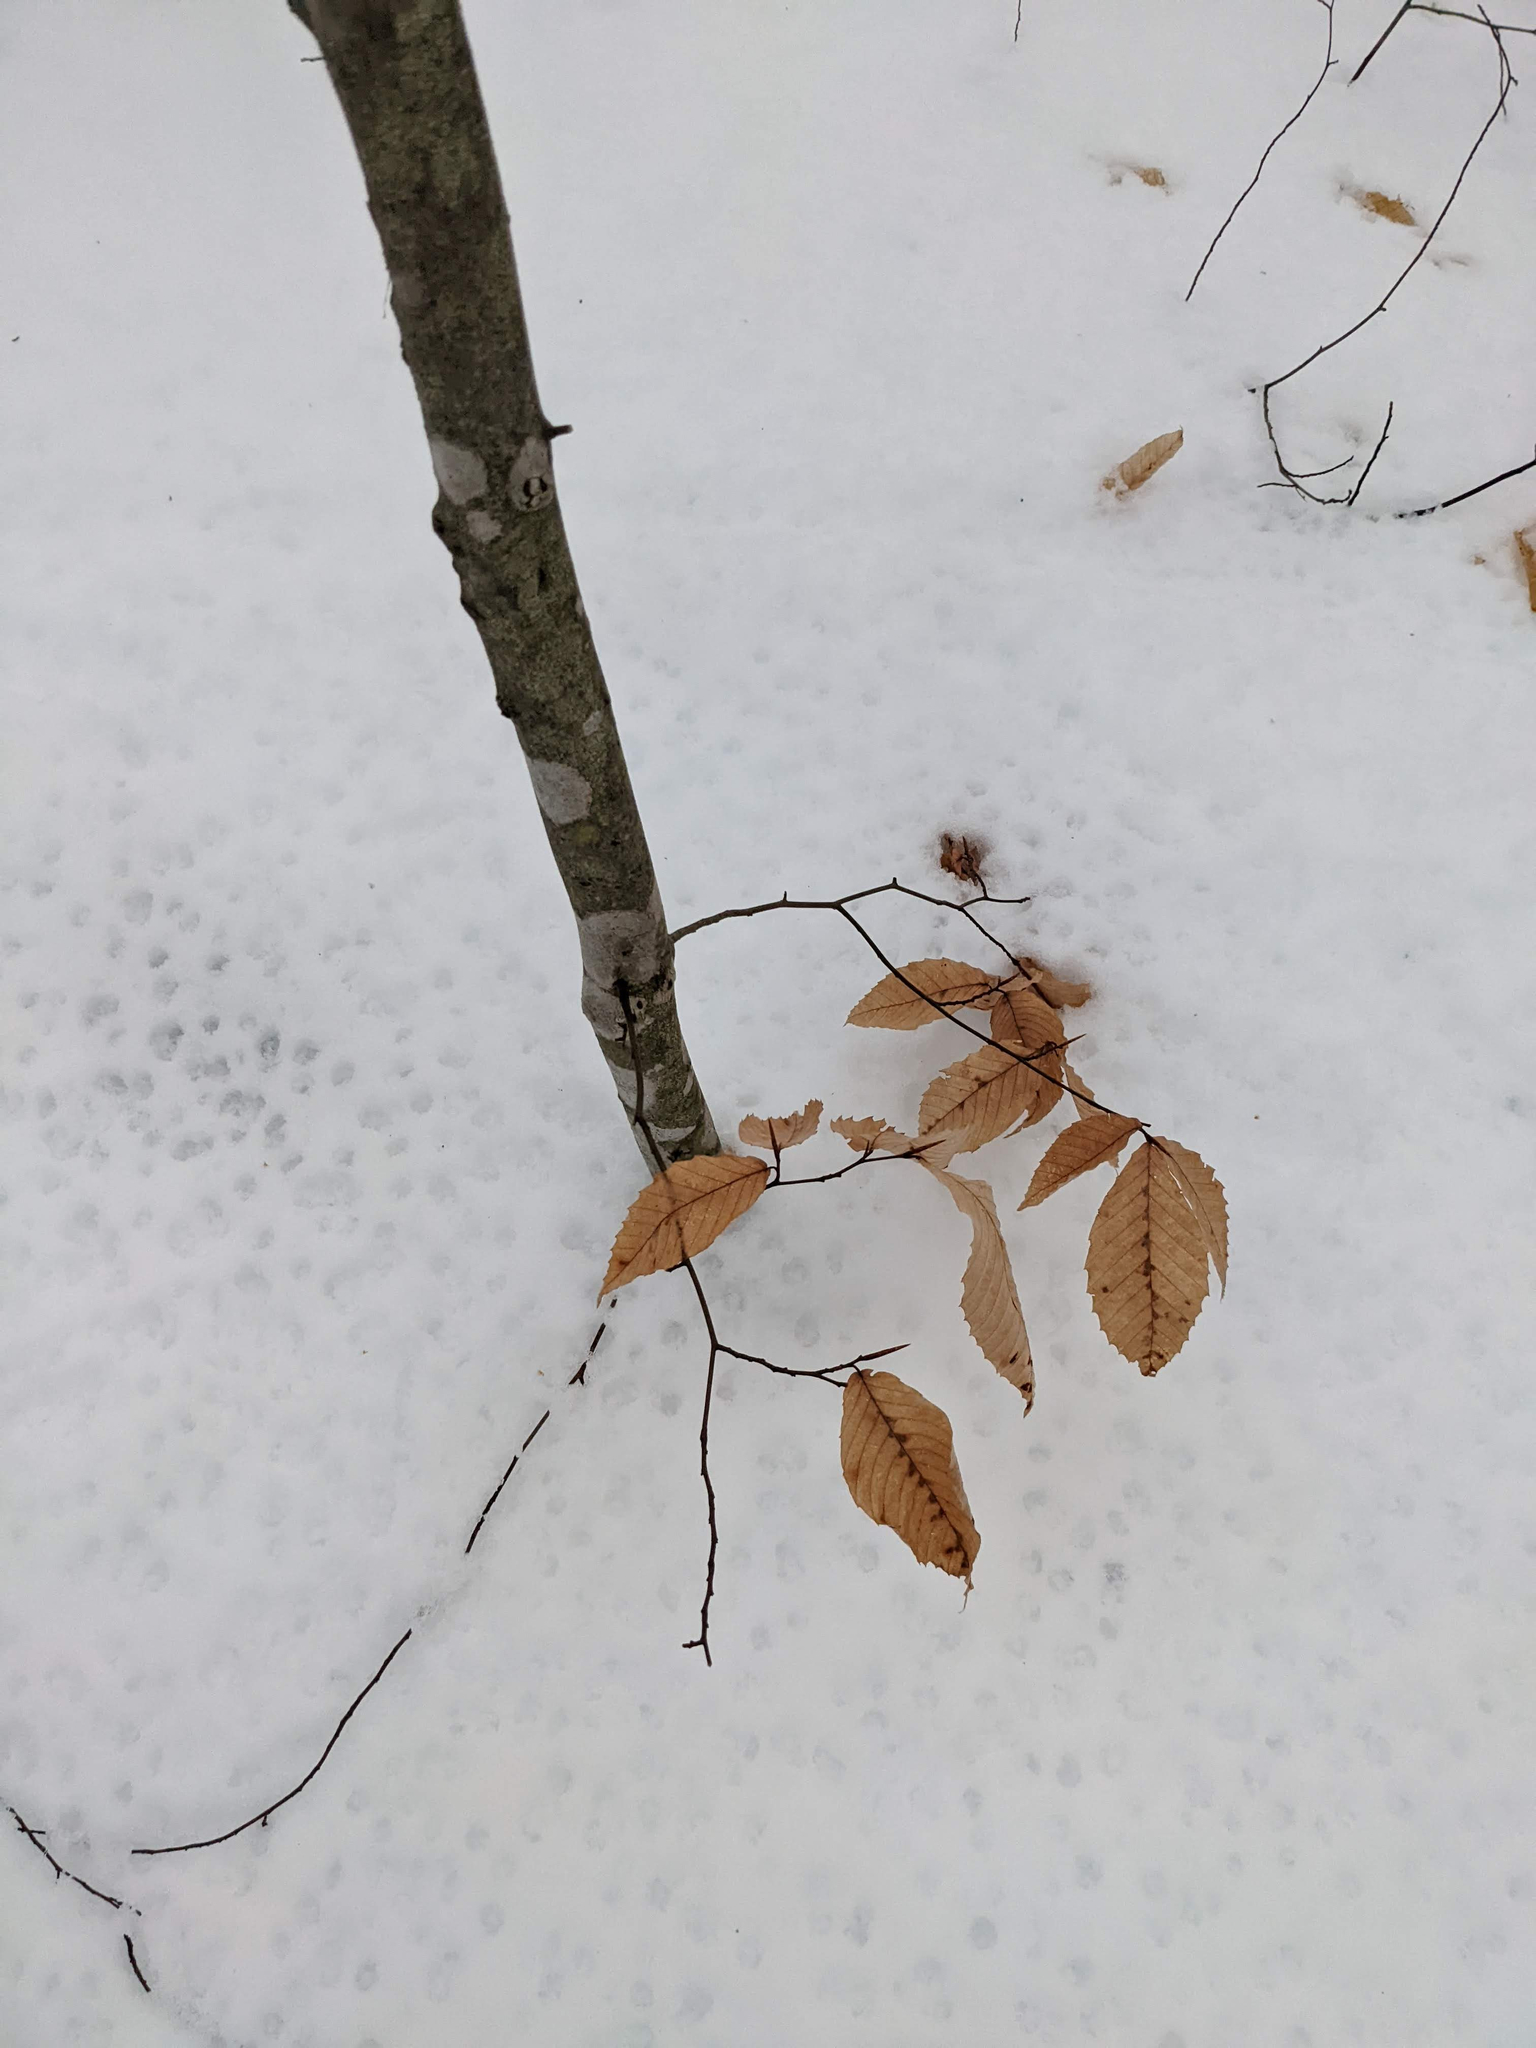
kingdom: Plantae
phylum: Tracheophyta
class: Magnoliopsida
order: Fagales
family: Fagaceae
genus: Fagus
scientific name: Fagus grandifolia
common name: American beech
